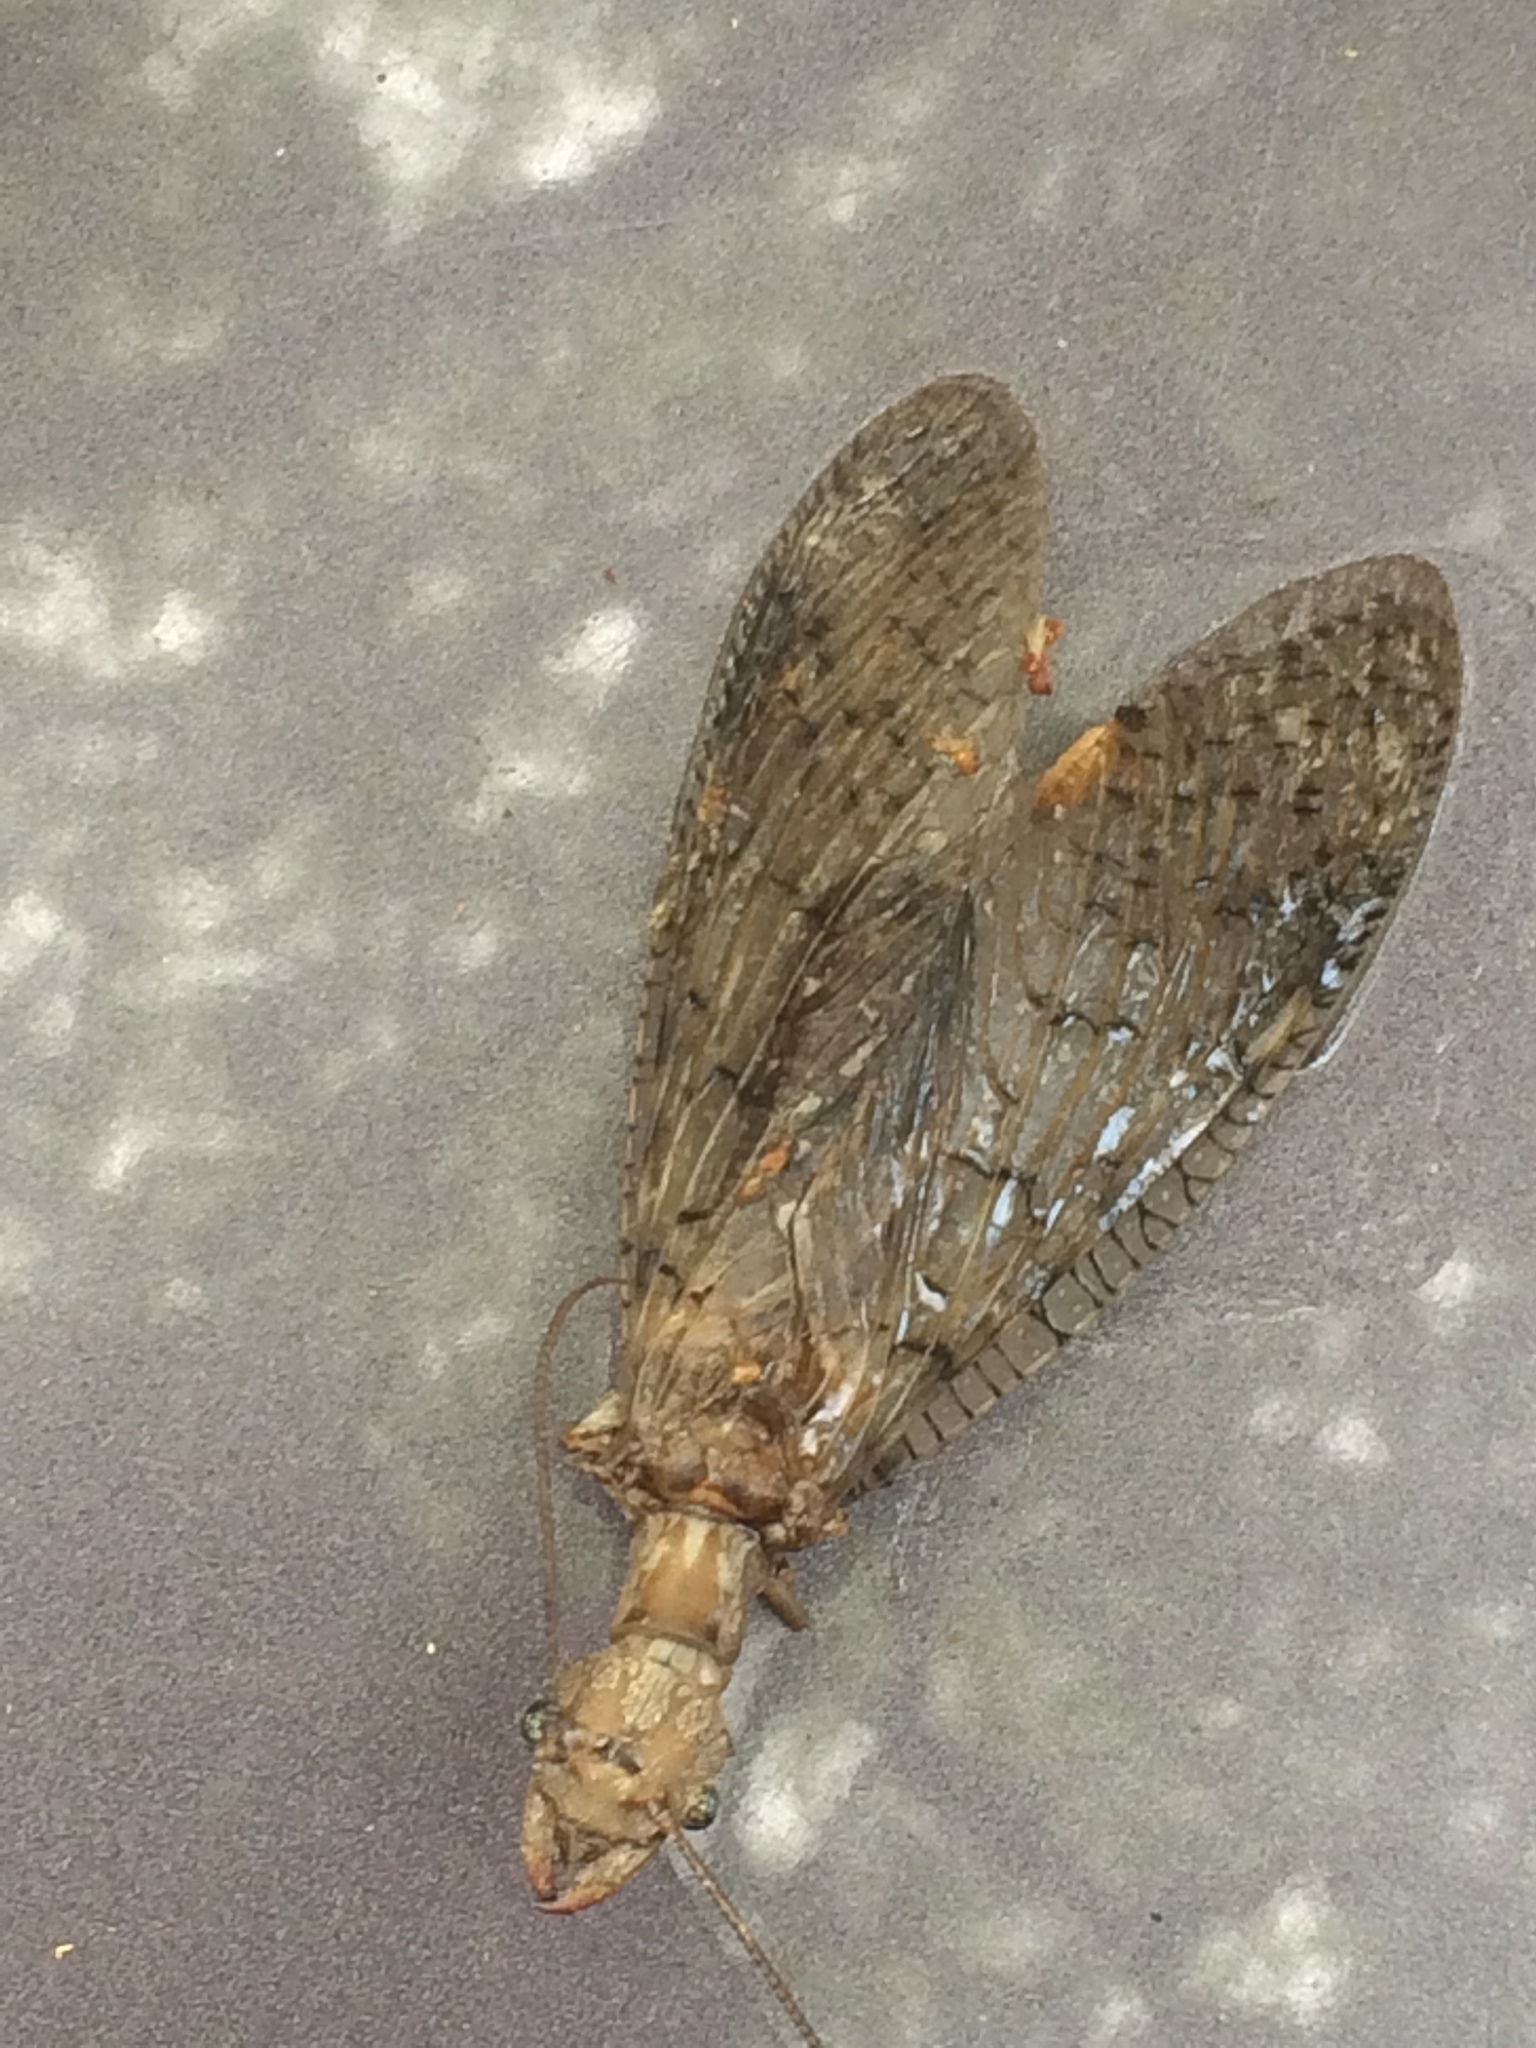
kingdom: Animalia
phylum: Arthropoda
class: Insecta
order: Megaloptera
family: Corydalidae
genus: Corydalus
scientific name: Corydalus cornutus
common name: Dobsonfly
